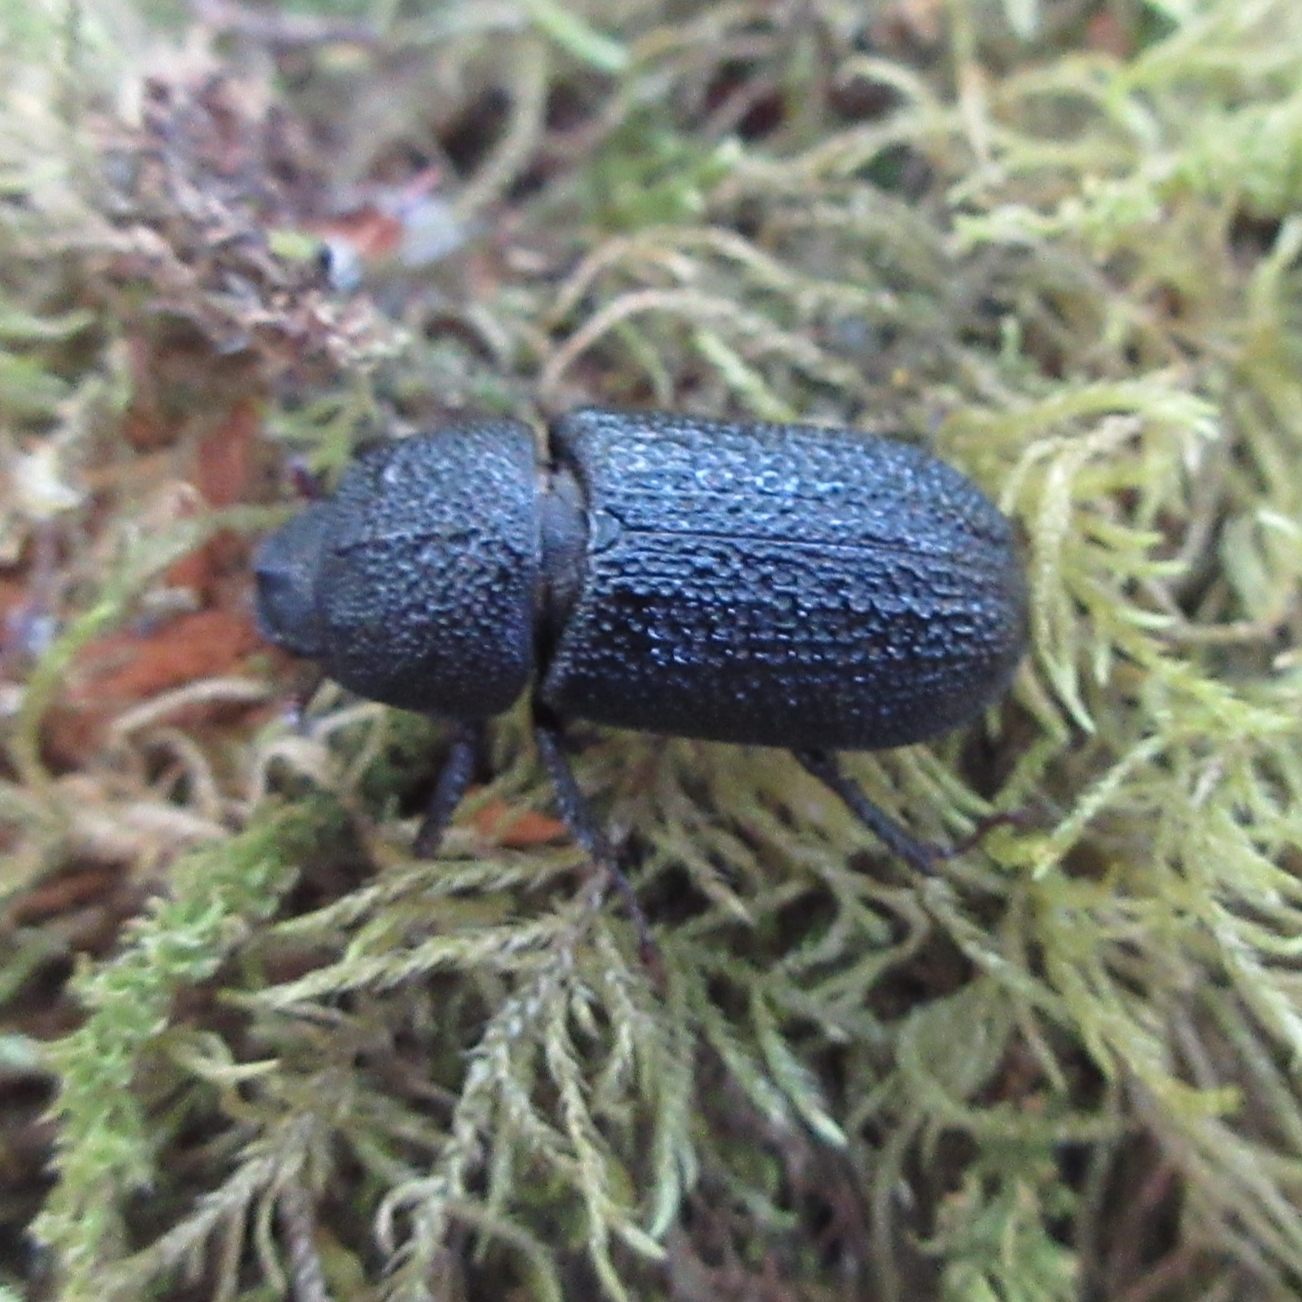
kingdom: Animalia
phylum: Arthropoda
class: Insecta
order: Coleoptera
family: Lucanidae
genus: Sinodendron
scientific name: Sinodendron rugosum
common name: Rugose stag beelte
